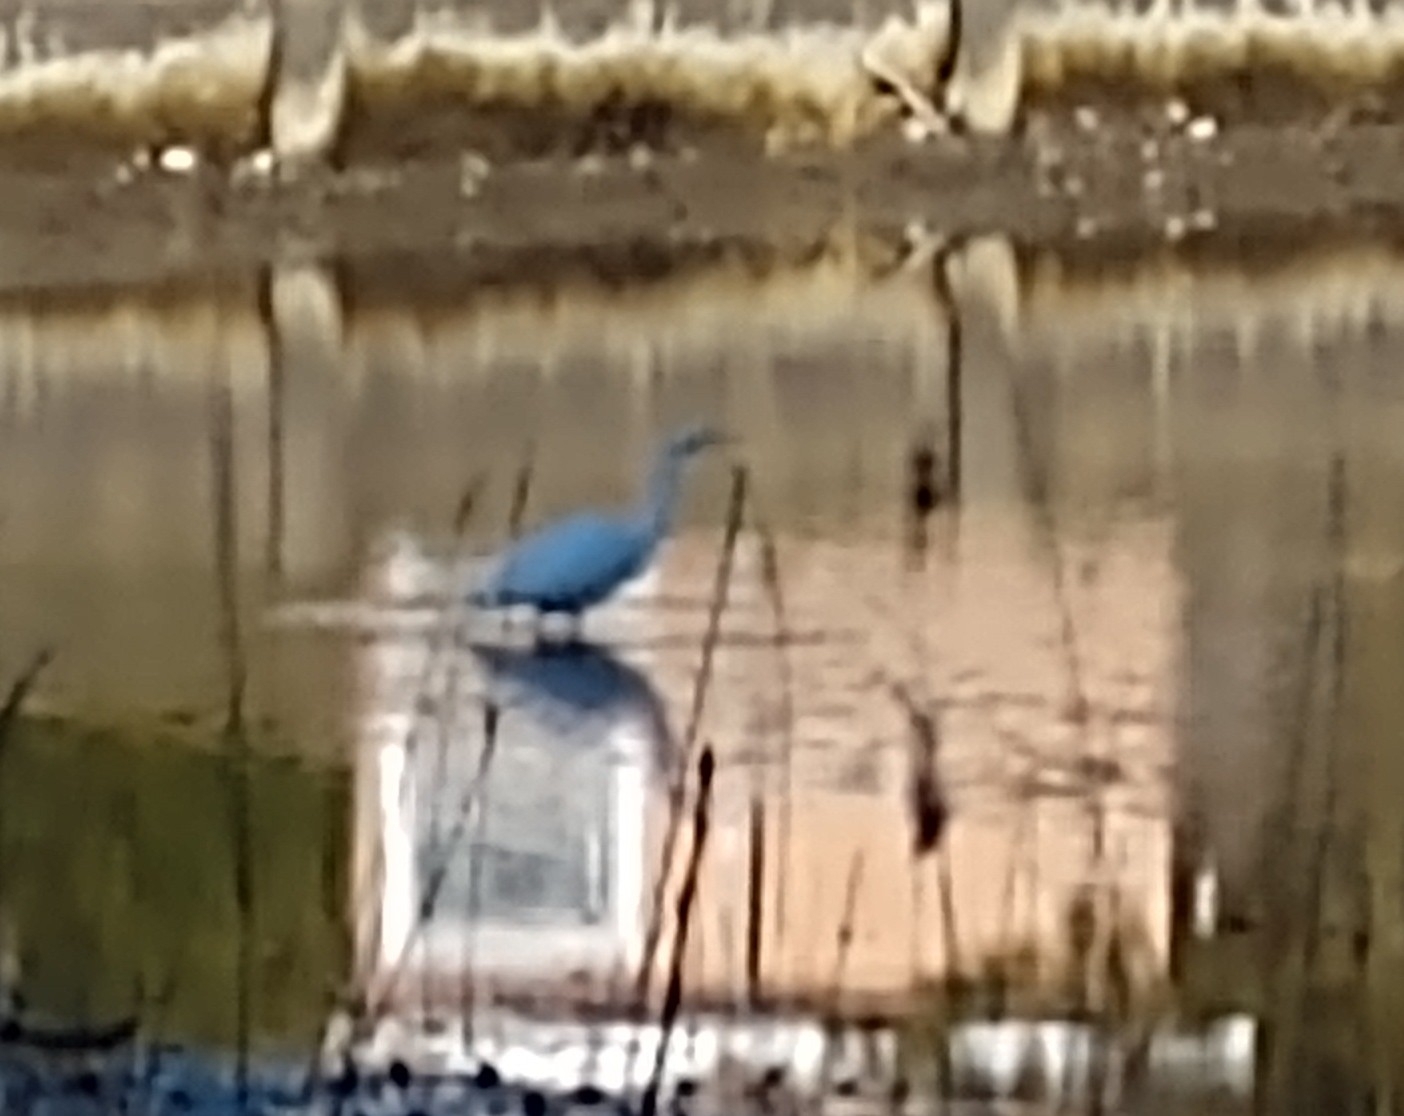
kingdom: Animalia
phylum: Chordata
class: Aves
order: Pelecaniformes
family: Ardeidae
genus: Ardea
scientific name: Ardea alba
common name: Great egret
